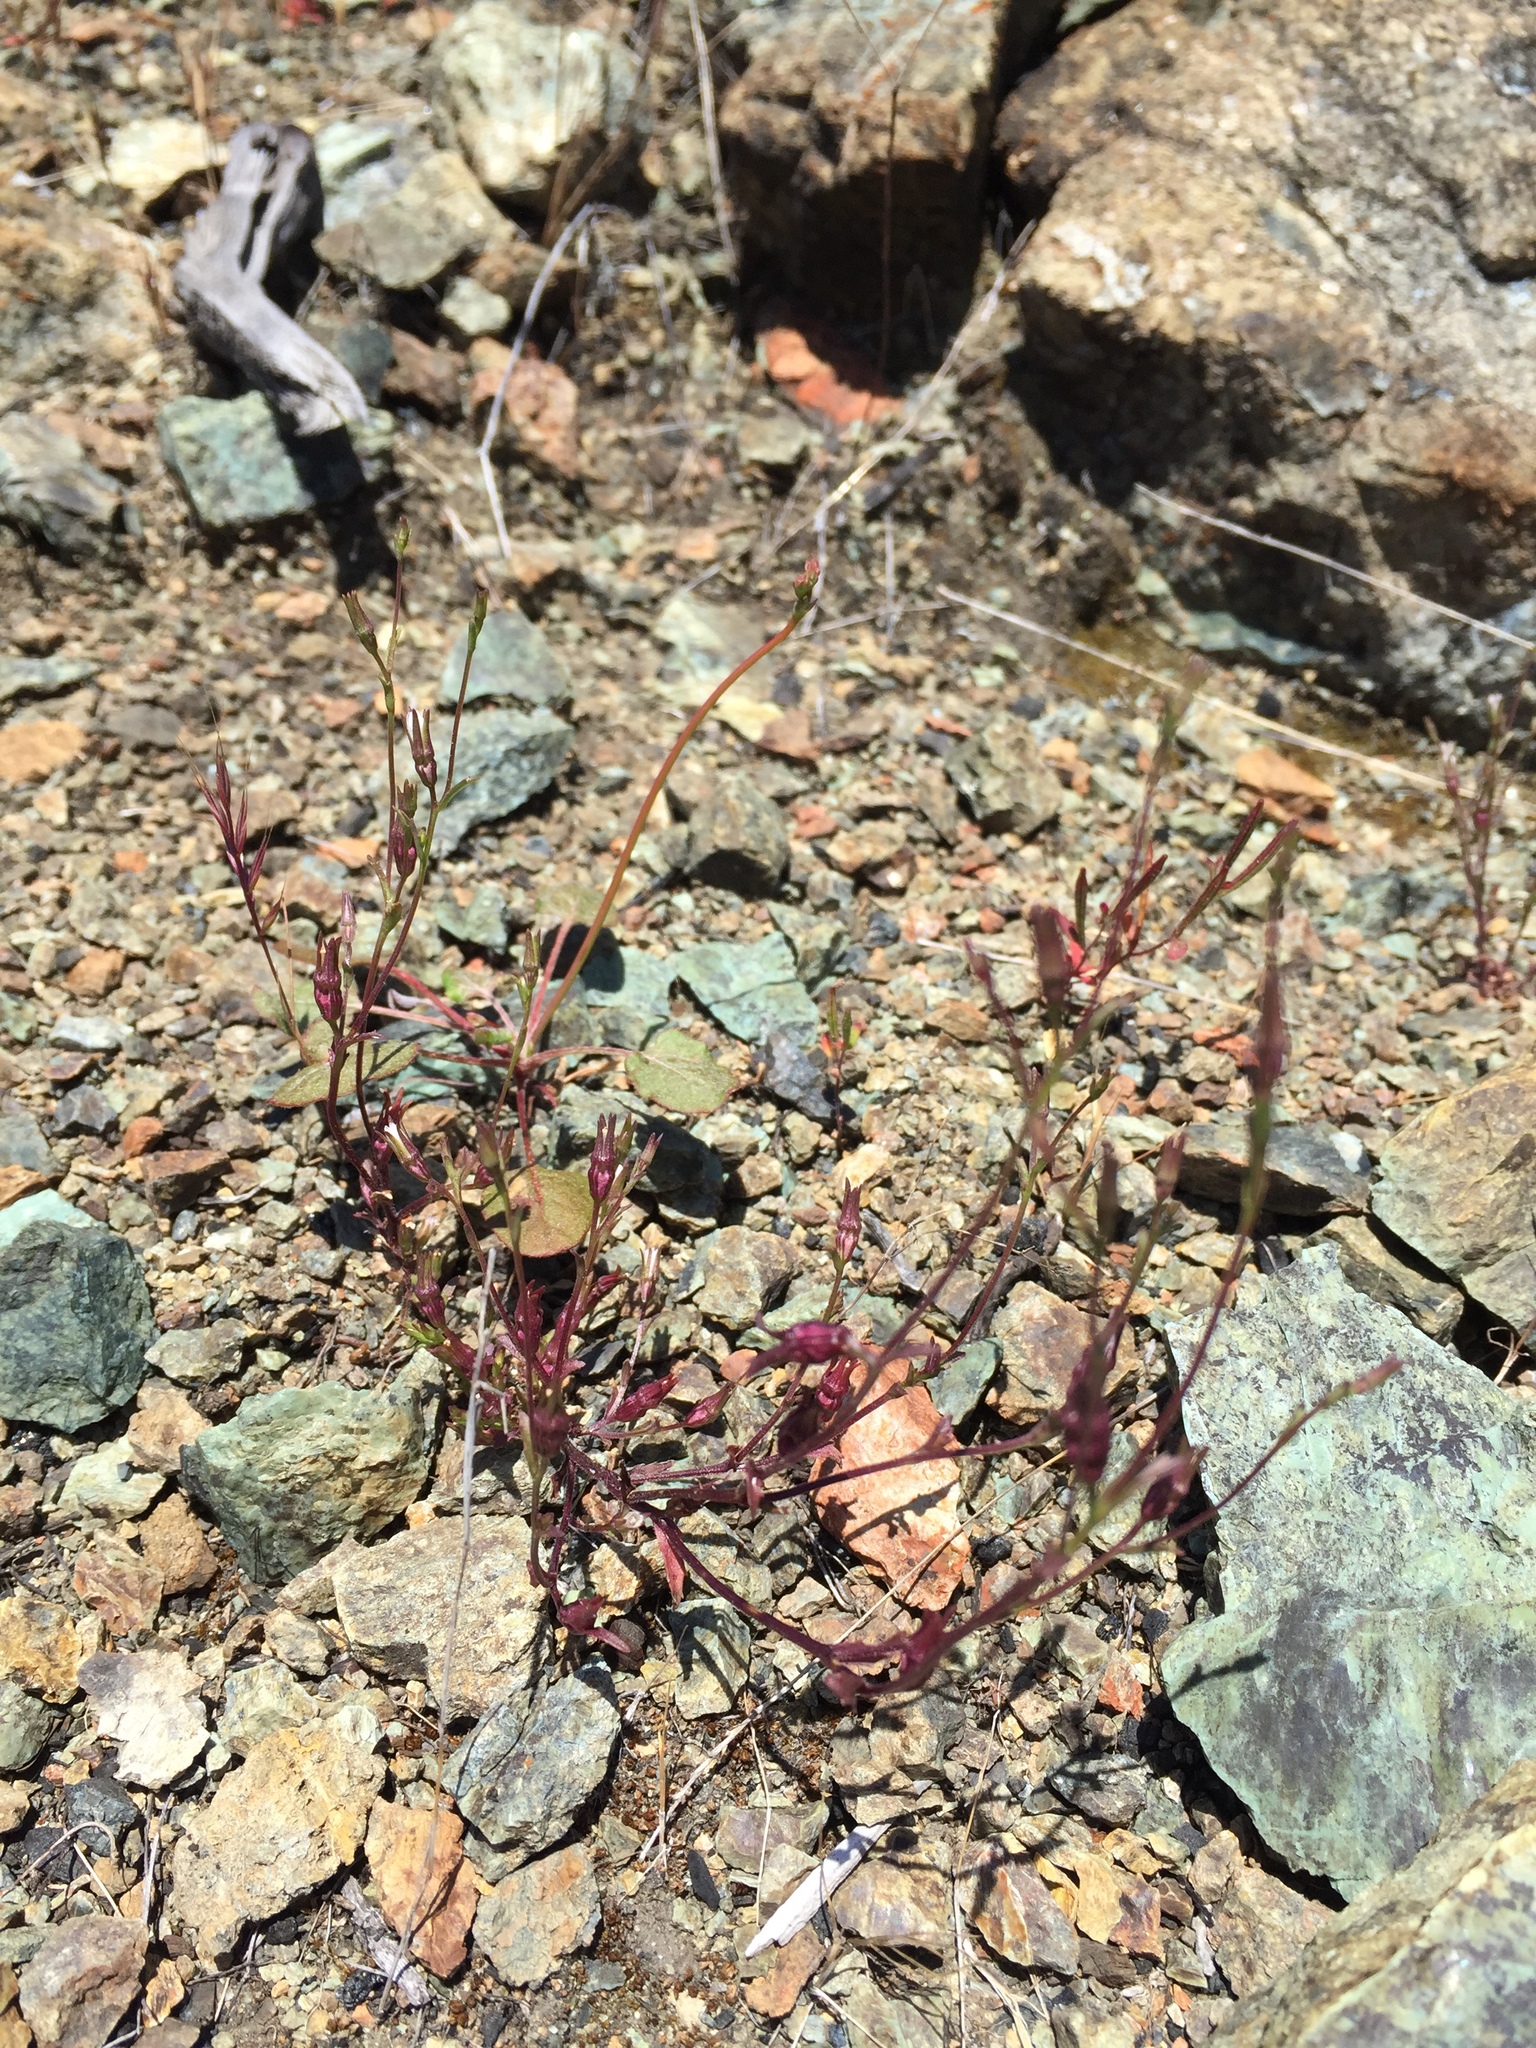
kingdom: Plantae
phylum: Tracheophyta
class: Magnoliopsida
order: Asterales
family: Campanulaceae
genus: Ravenella
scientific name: Ravenella griffinii
